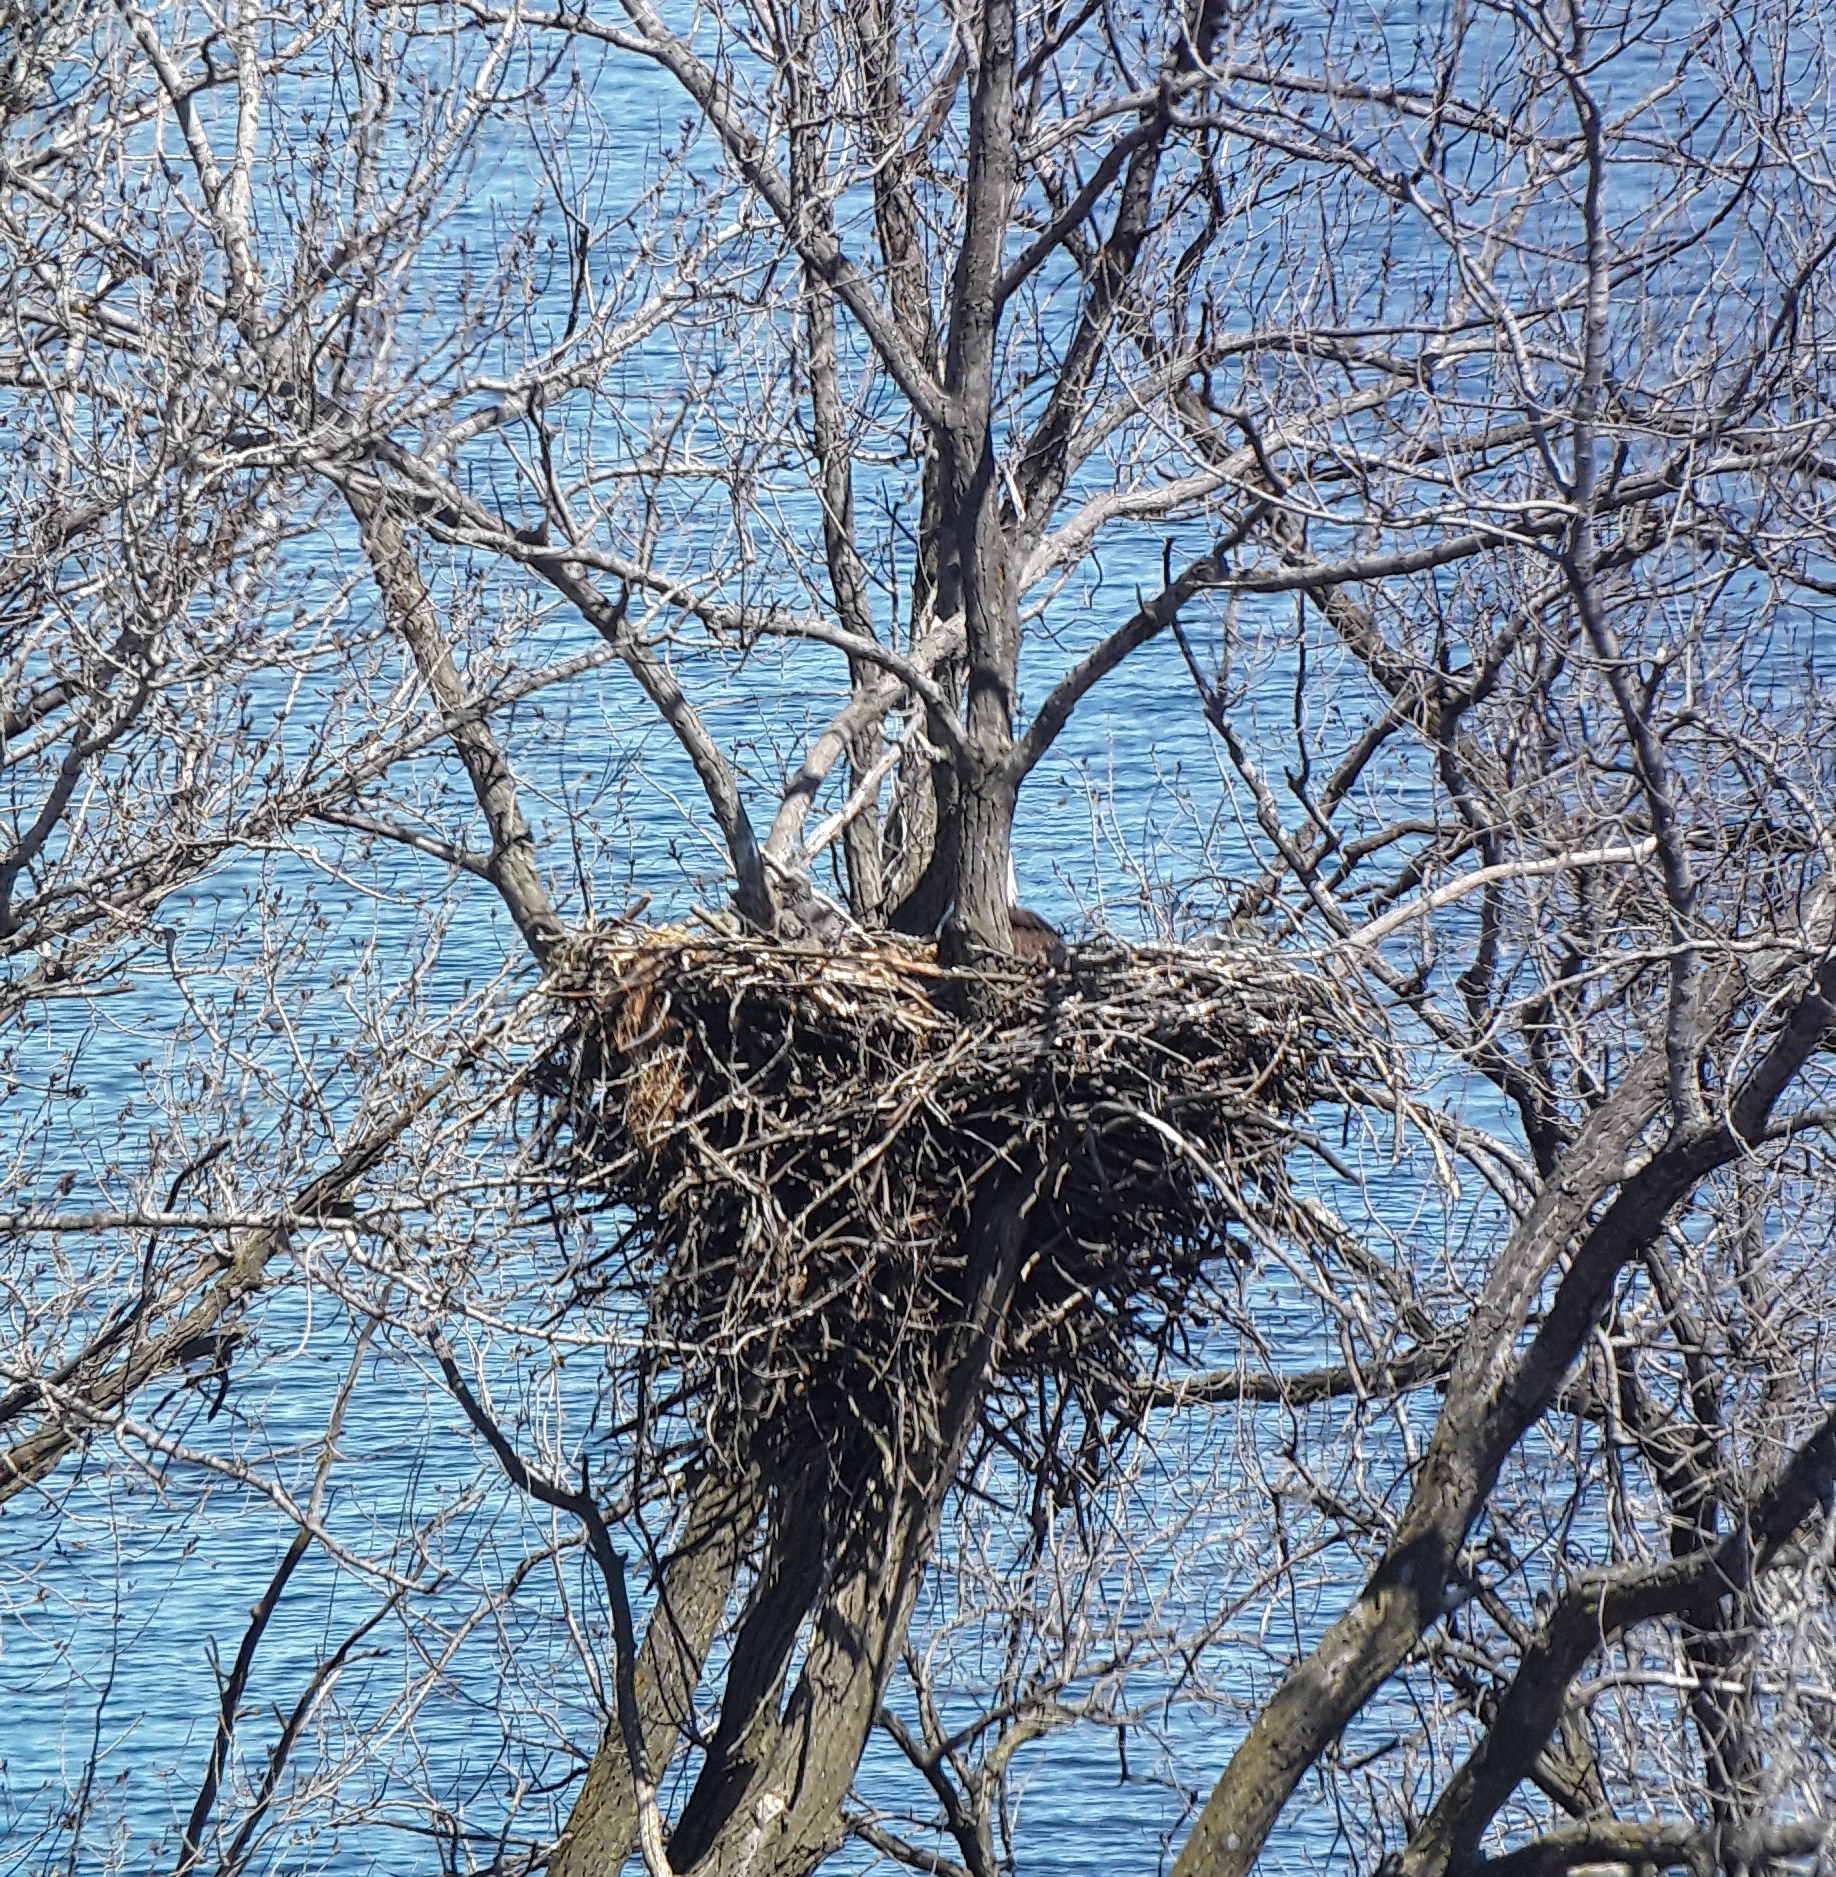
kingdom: Animalia
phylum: Chordata
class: Aves
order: Accipitriformes
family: Accipitridae
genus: Haliaeetus
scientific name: Haliaeetus leucocephalus
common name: Bald eagle
